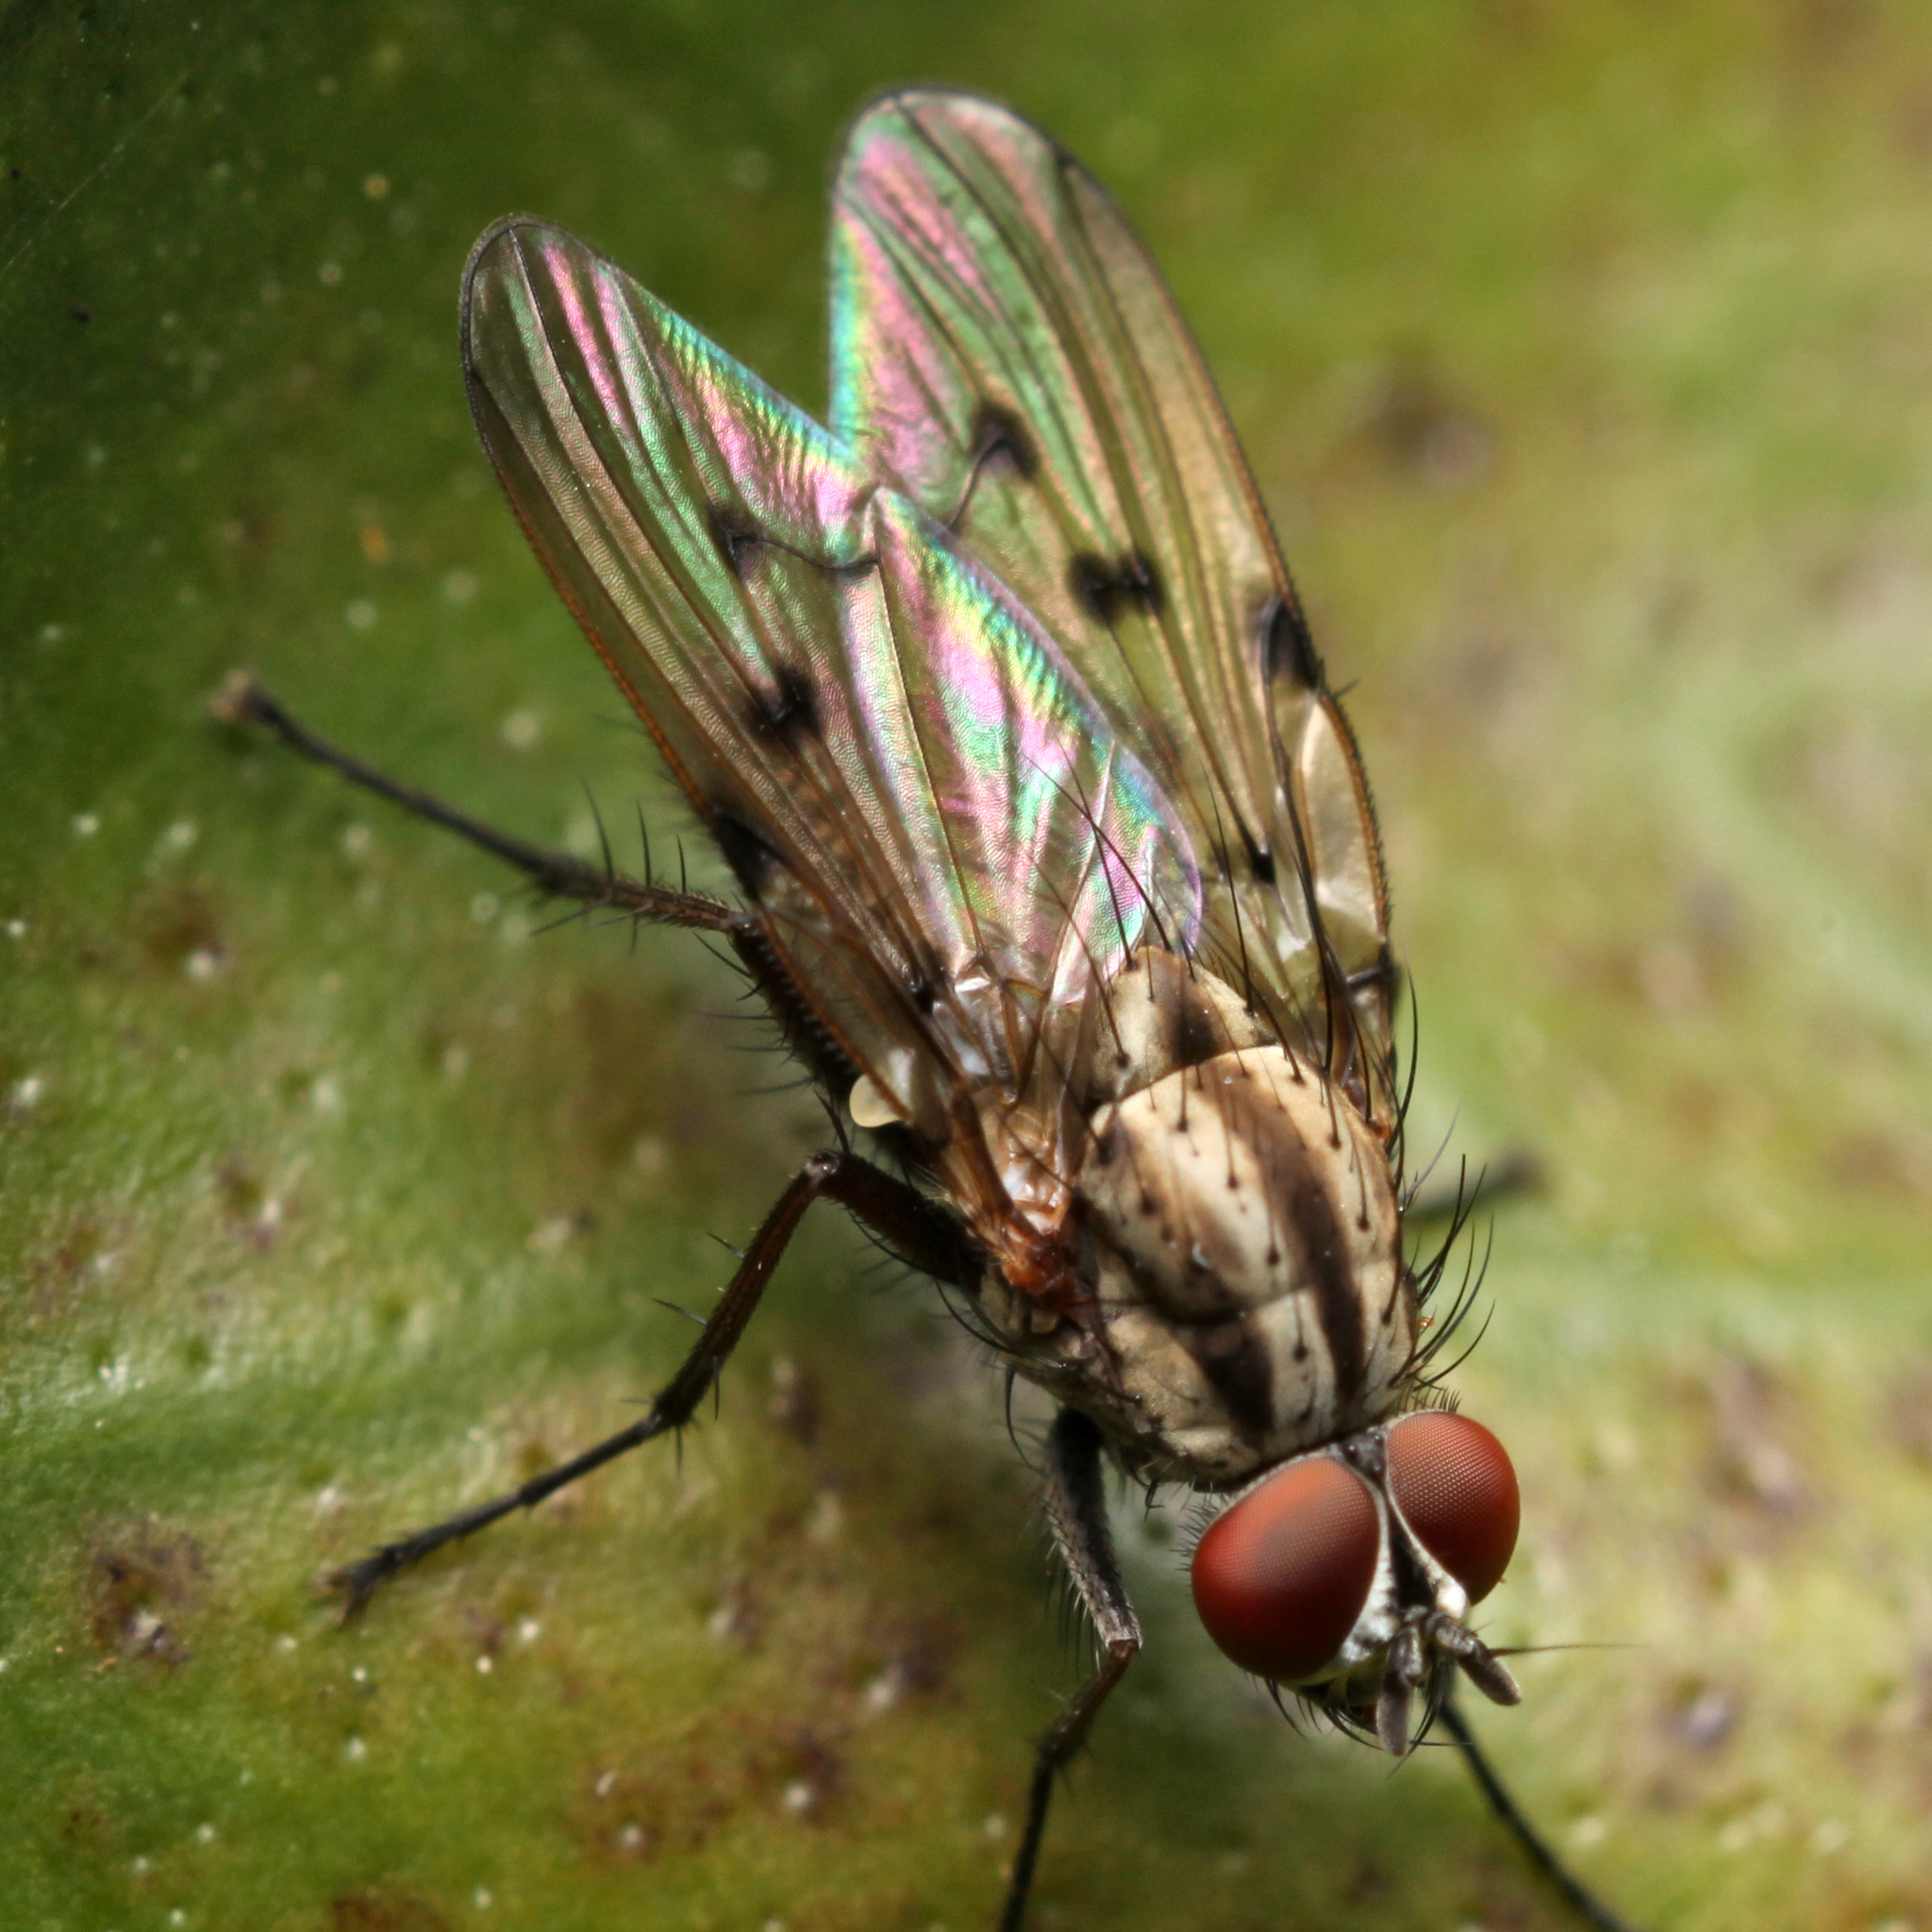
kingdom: Animalia
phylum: Arthropoda
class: Insecta
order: Diptera
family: Anthomyiidae
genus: Anthomyia
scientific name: Anthomyia punctipennis
